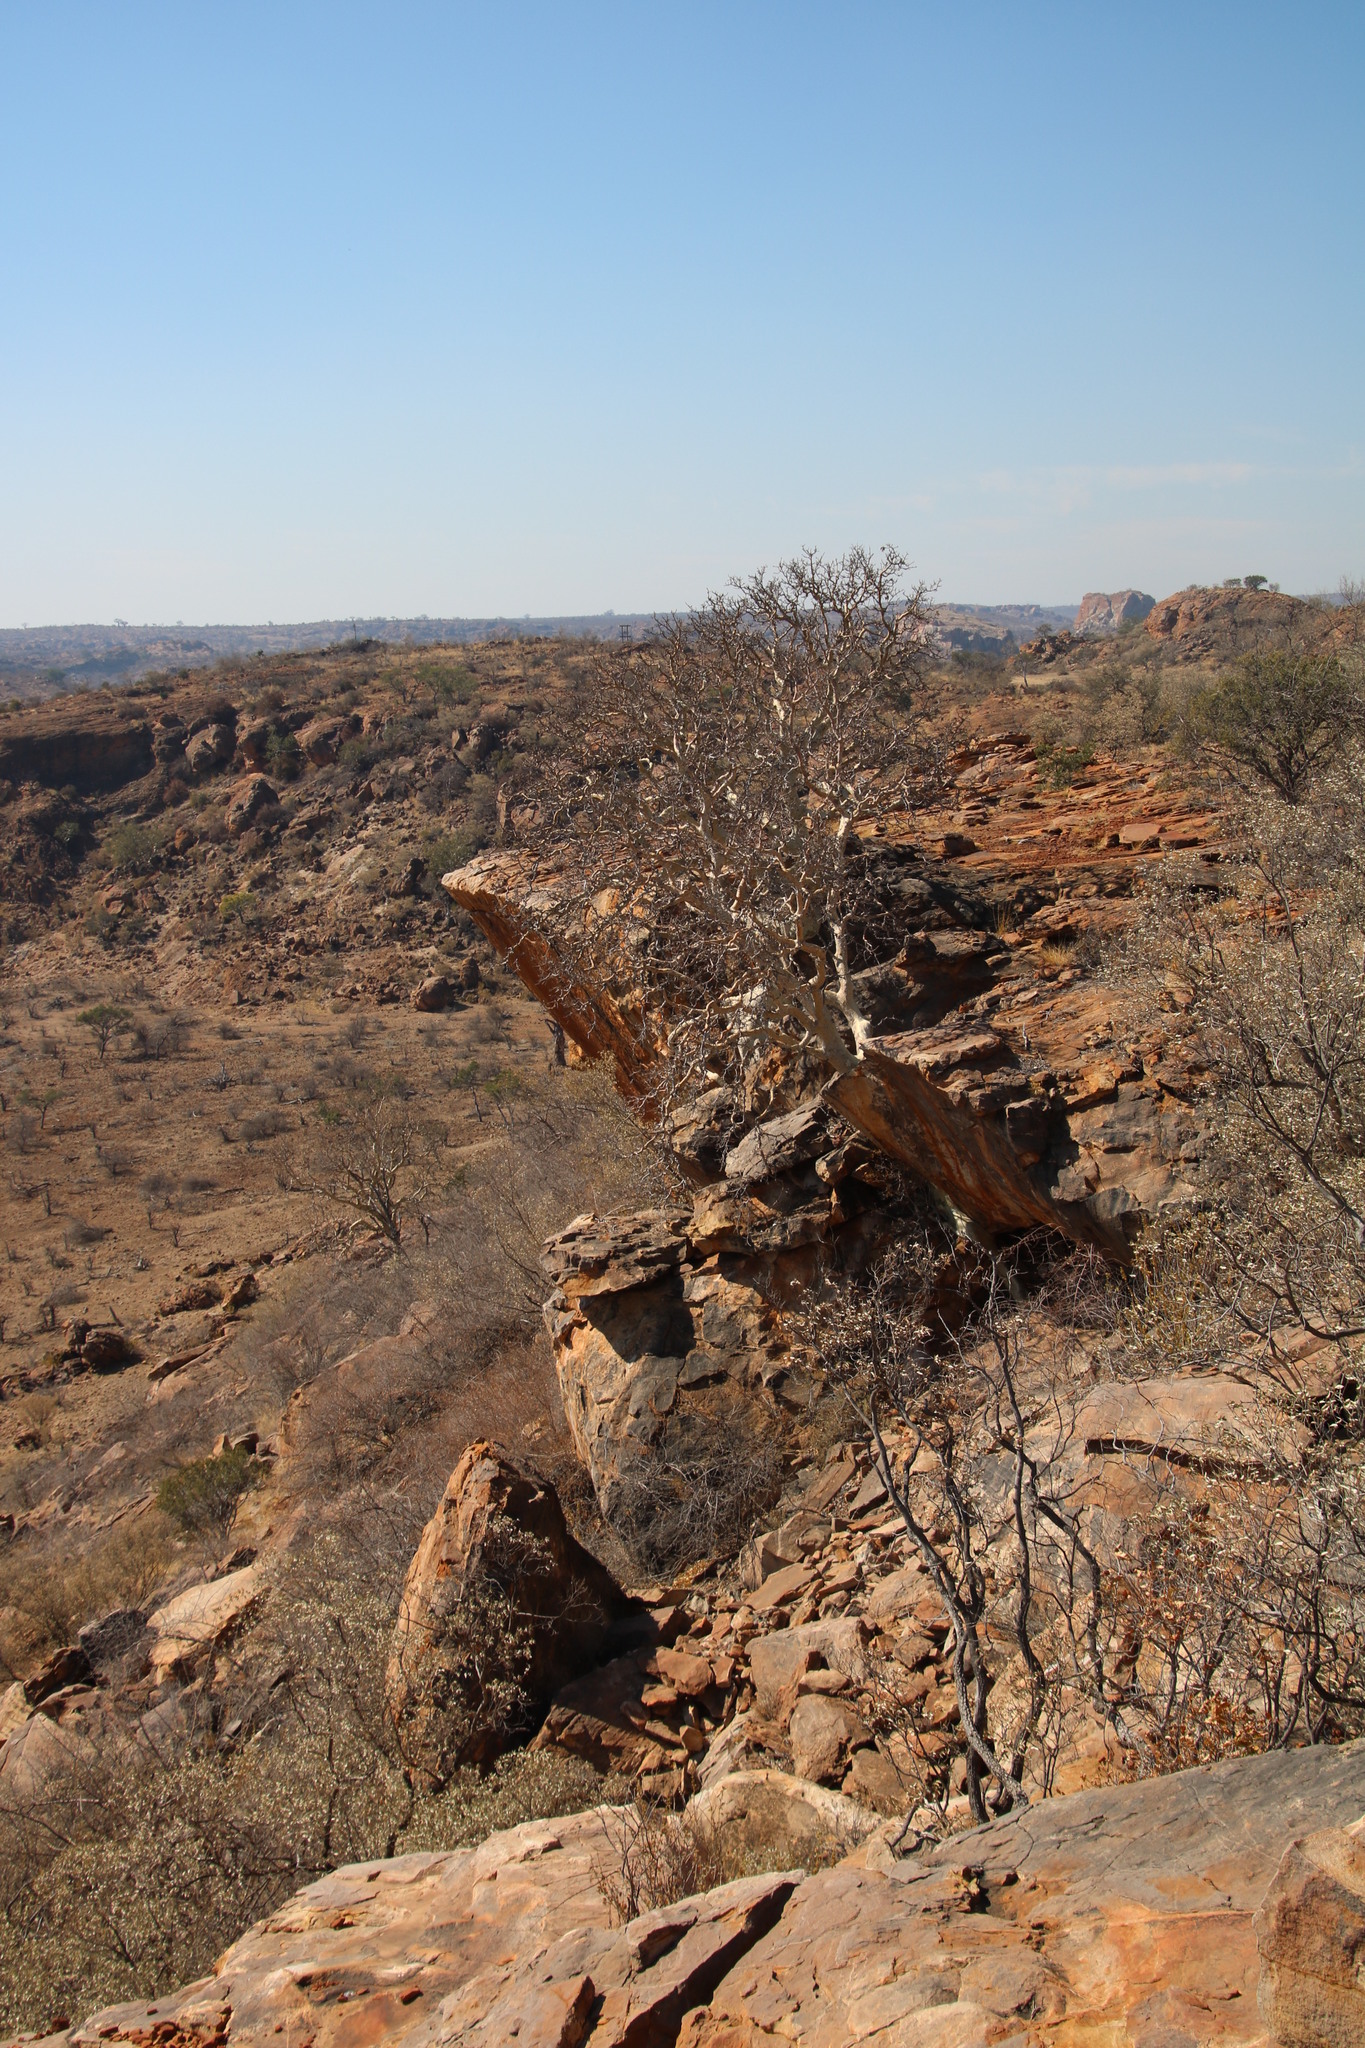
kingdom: Plantae
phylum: Tracheophyta
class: Magnoliopsida
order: Rosales
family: Moraceae
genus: Ficus
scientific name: Ficus tettensis
